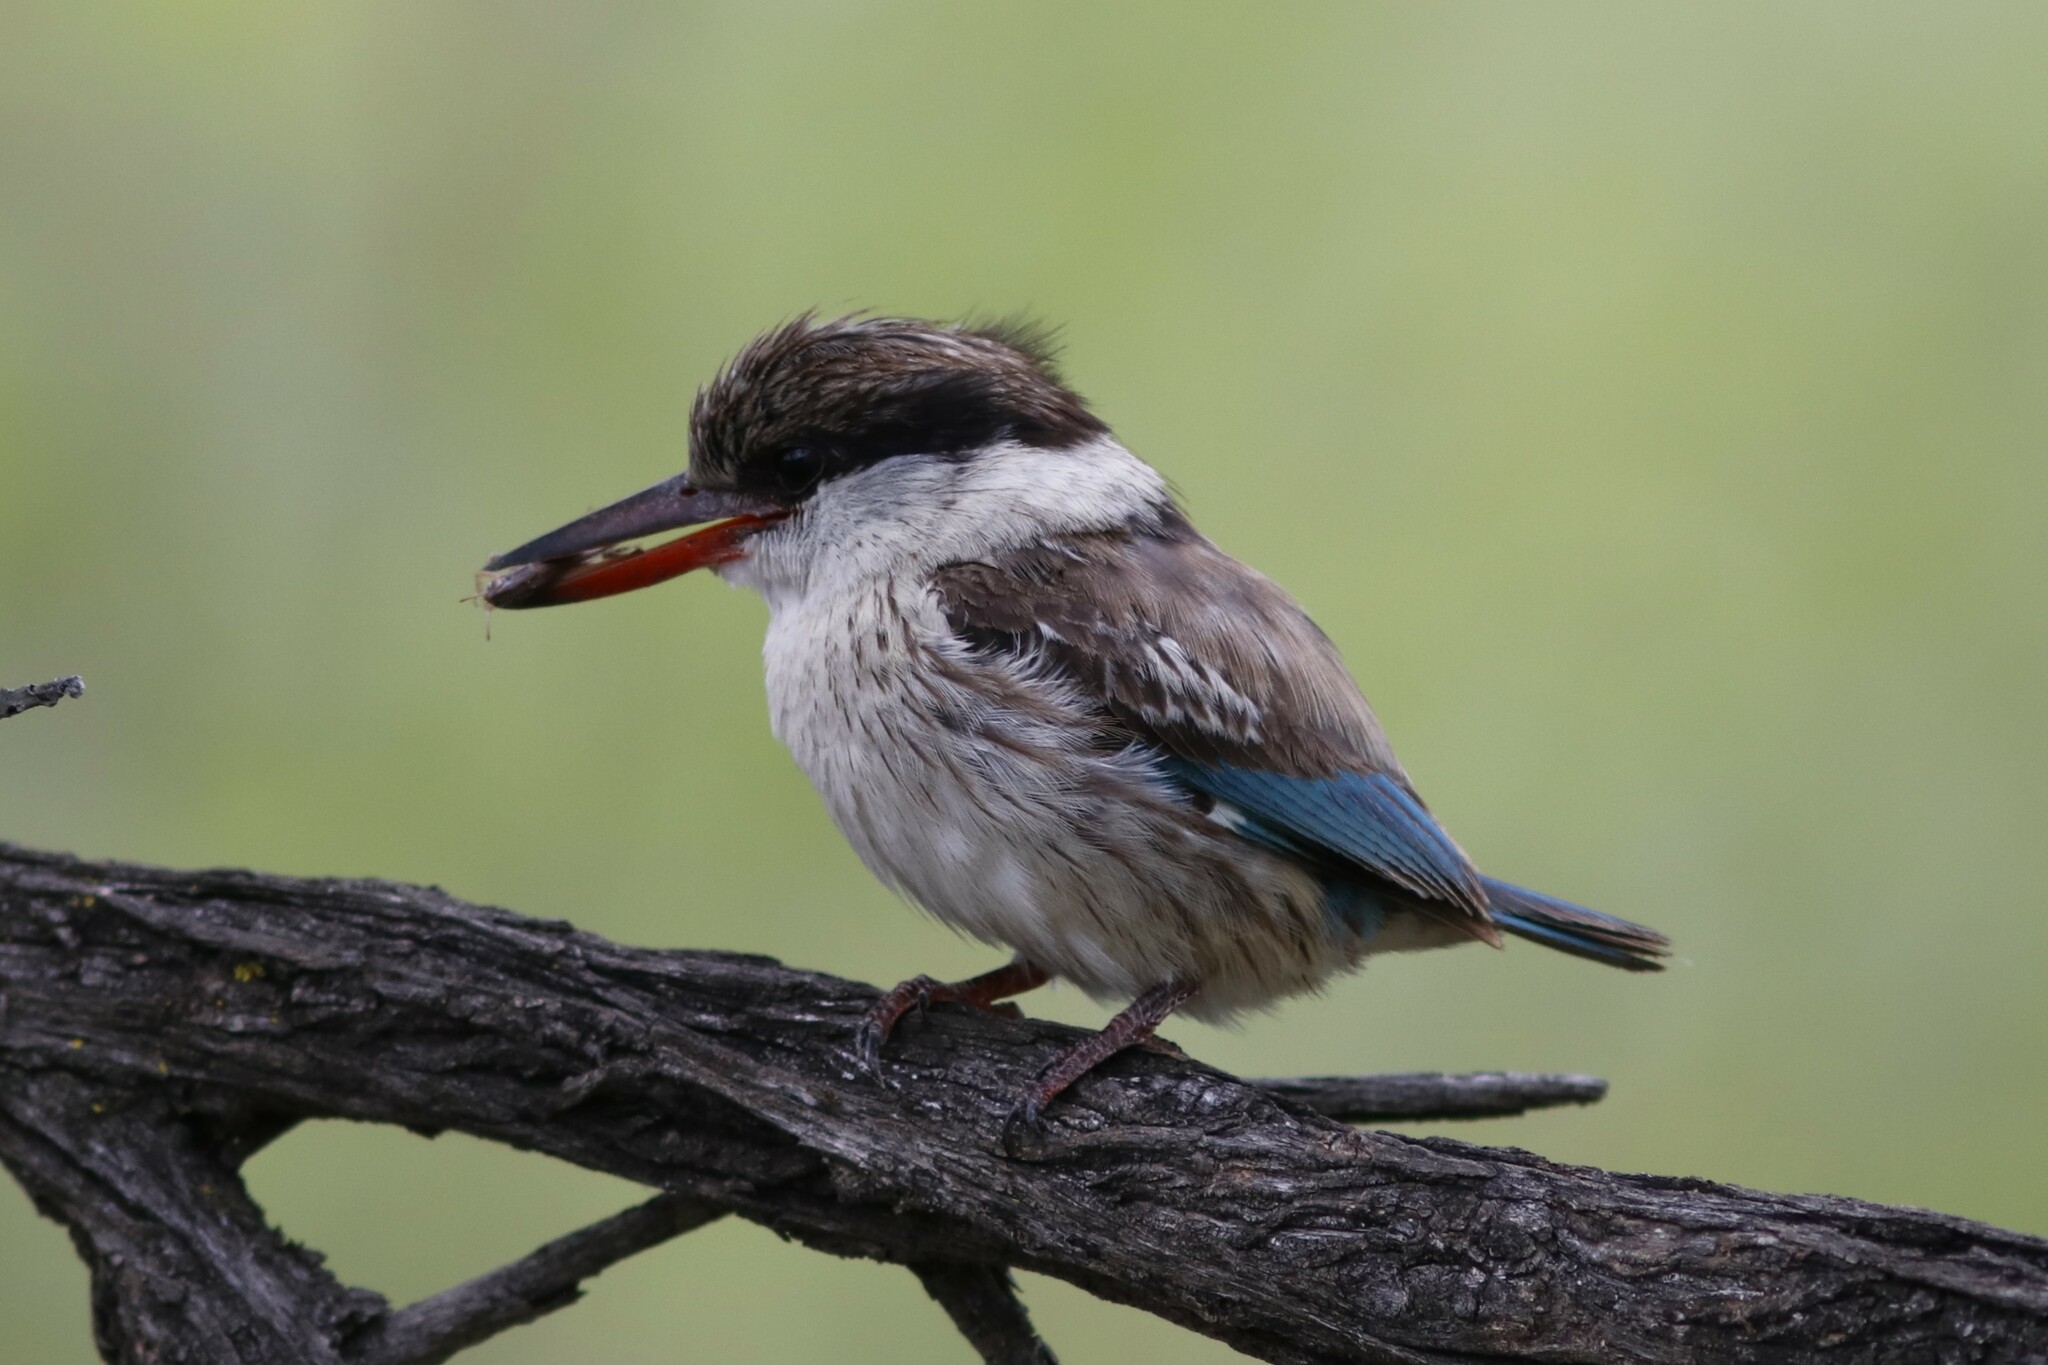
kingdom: Animalia
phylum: Chordata
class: Aves
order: Coraciiformes
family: Alcedinidae
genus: Halcyon
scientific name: Halcyon chelicuti
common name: Striped kingfisher
